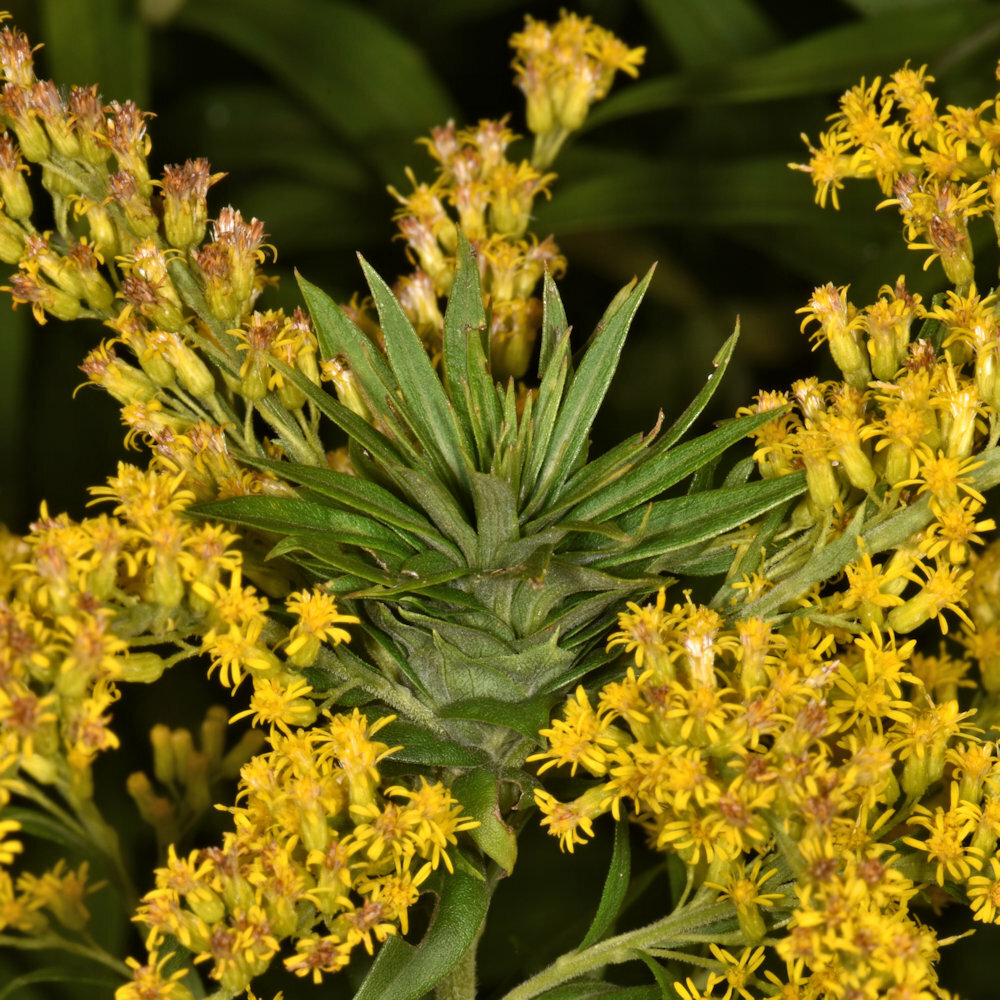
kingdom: Animalia
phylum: Arthropoda
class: Insecta
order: Diptera
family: Cecidomyiidae
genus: Rhopalomyia
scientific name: Rhopalomyia solidaginis
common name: Goldenrod bunch gall midge
